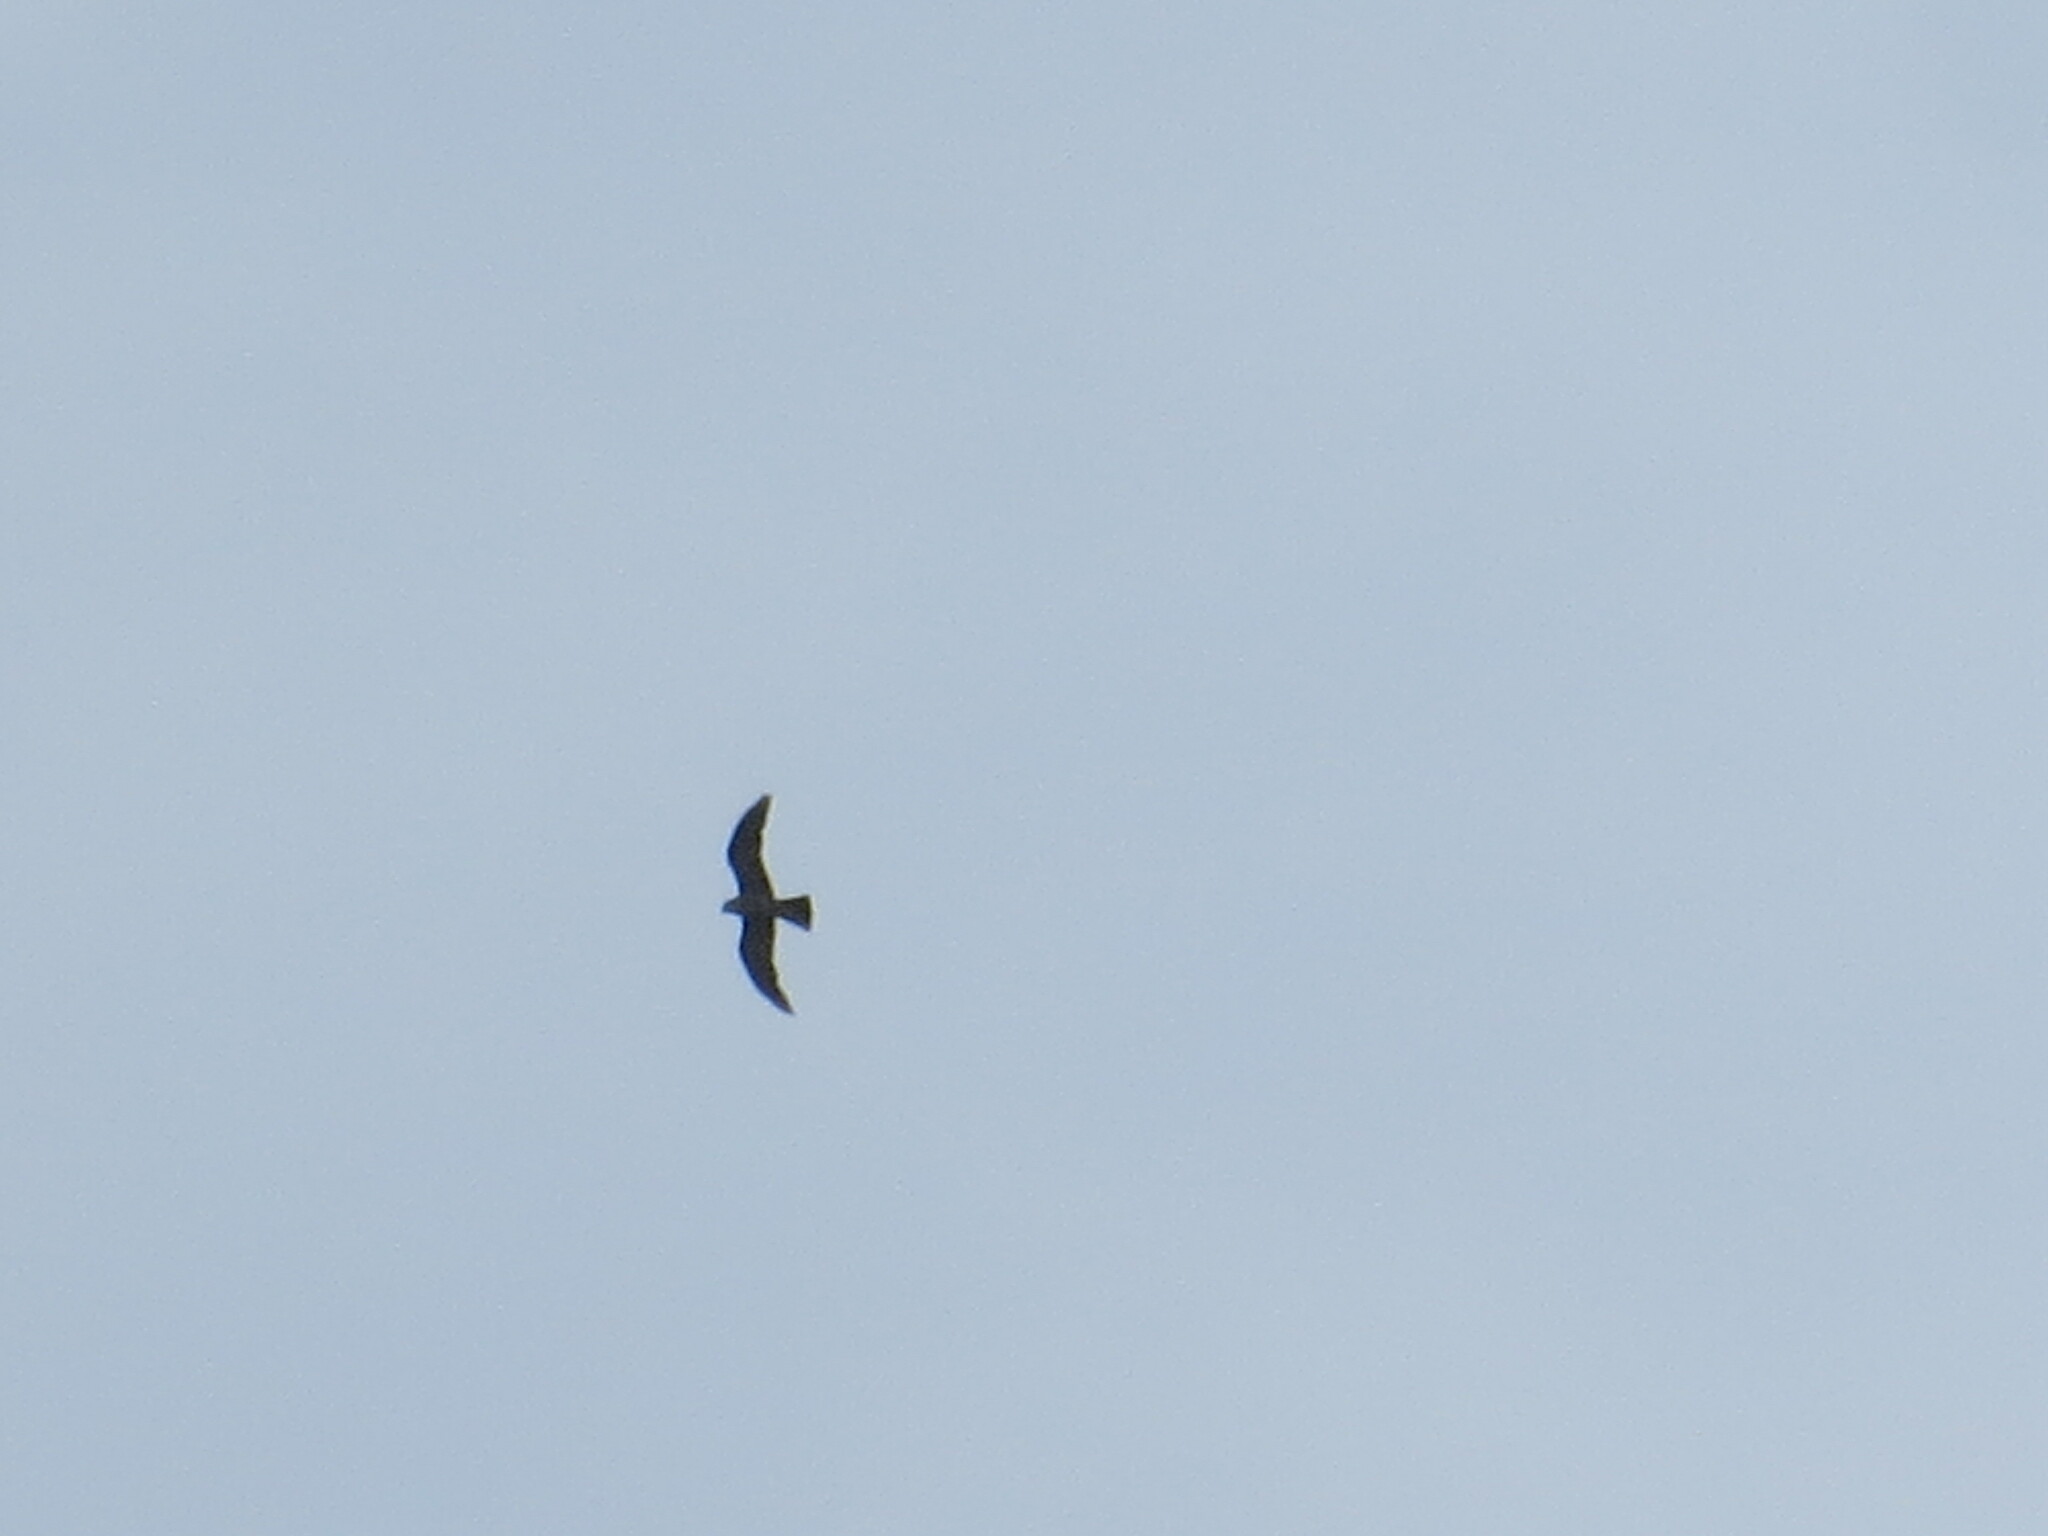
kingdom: Animalia
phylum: Chordata
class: Aves
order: Accipitriformes
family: Accipitridae
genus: Ictinia
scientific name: Ictinia mississippiensis
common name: Mississippi kite
